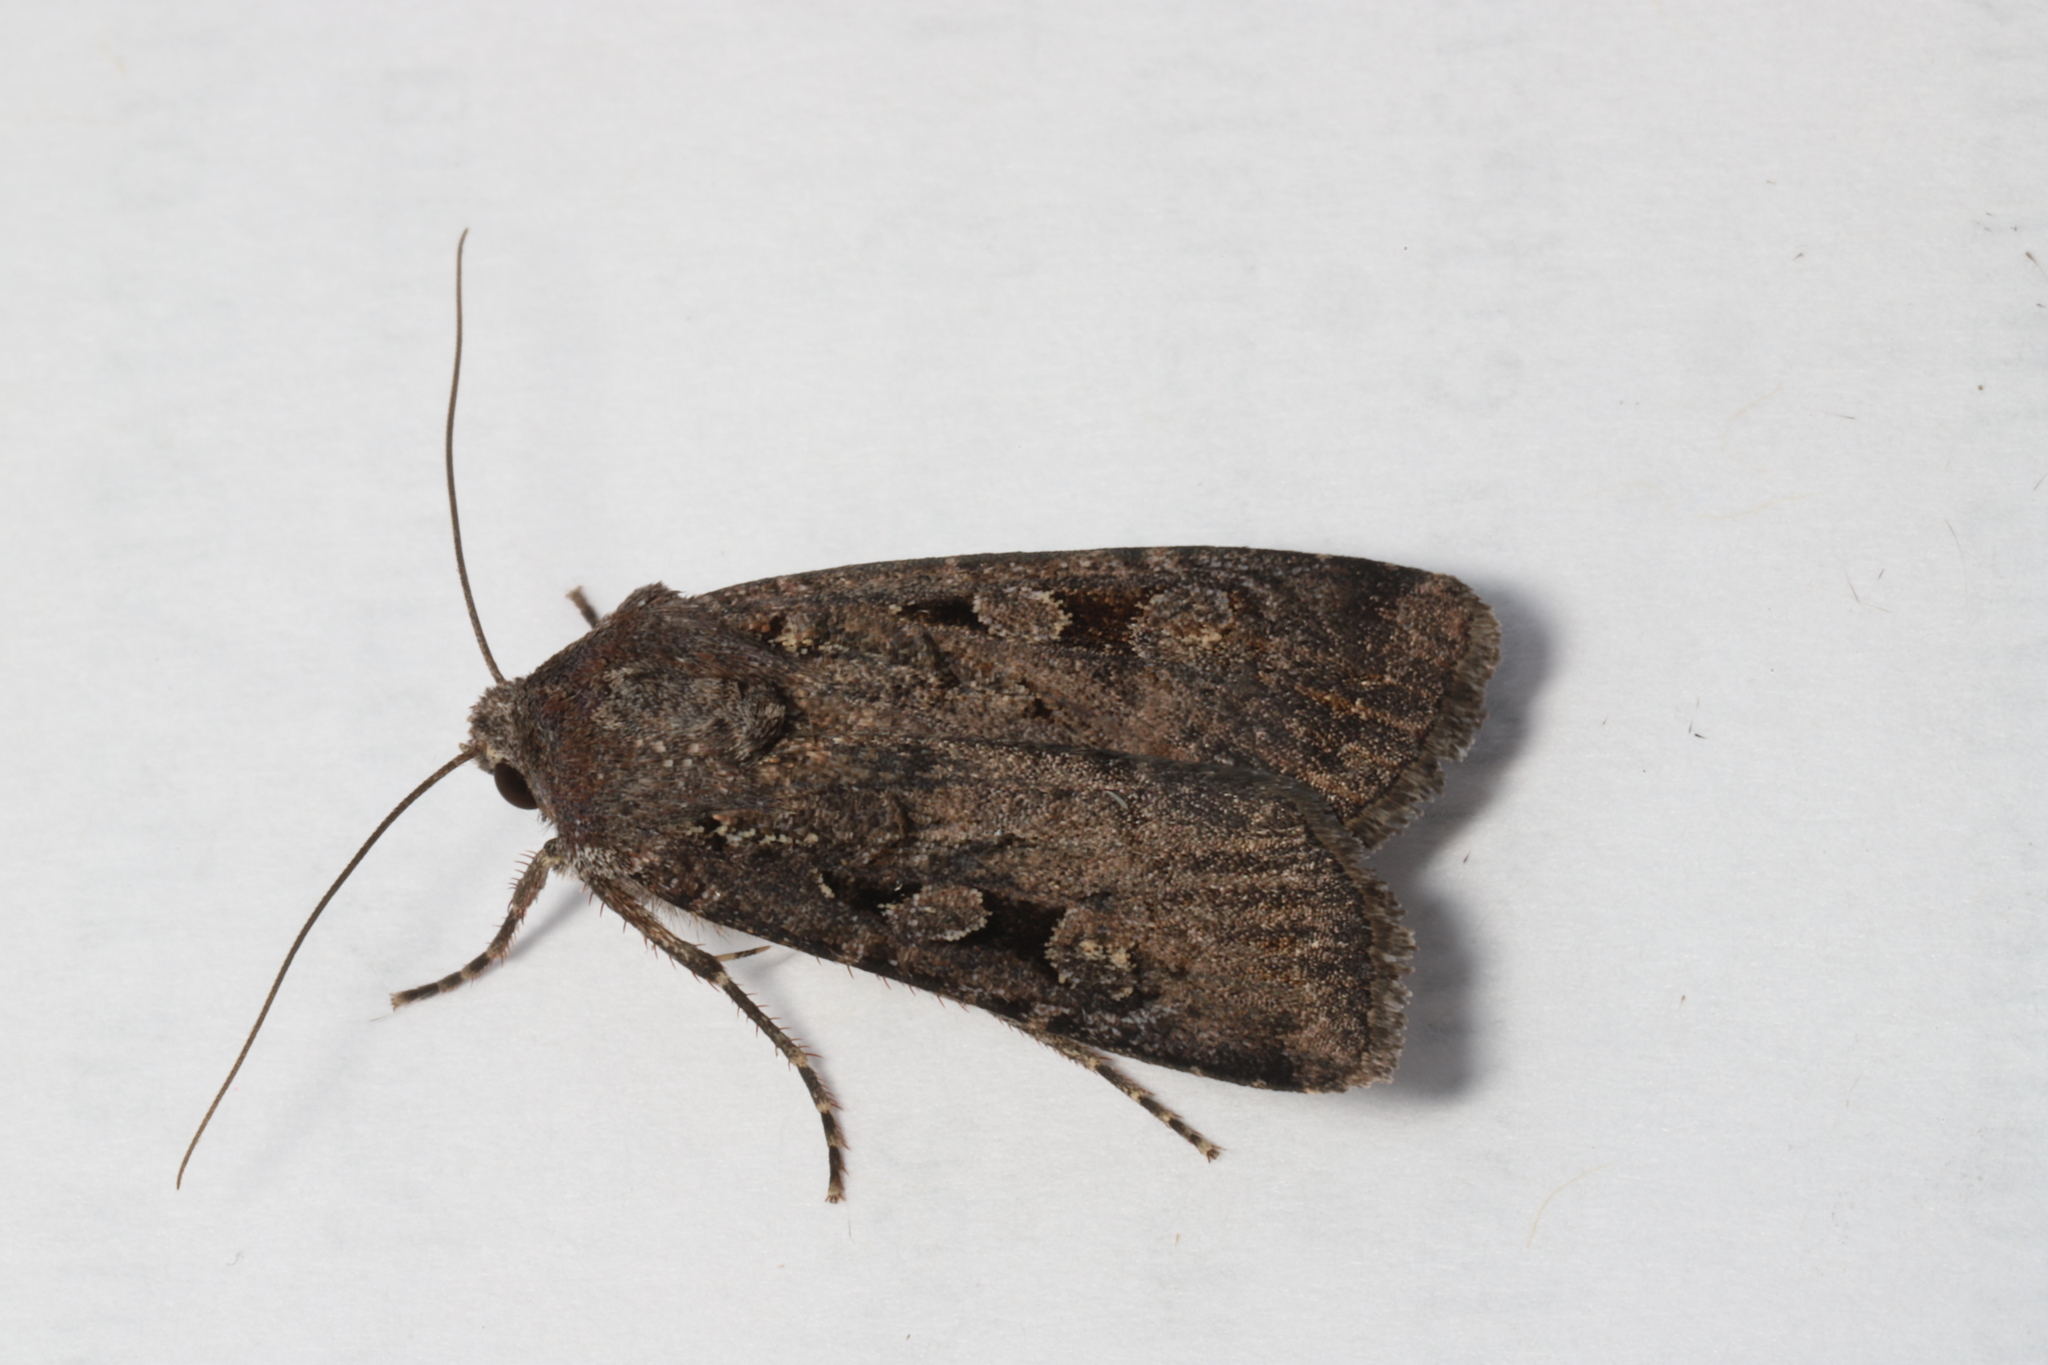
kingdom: Animalia
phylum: Arthropoda
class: Insecta
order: Lepidoptera
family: Noctuidae
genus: Euxoa
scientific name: Euxoa tessellata
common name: Striped cutworm
